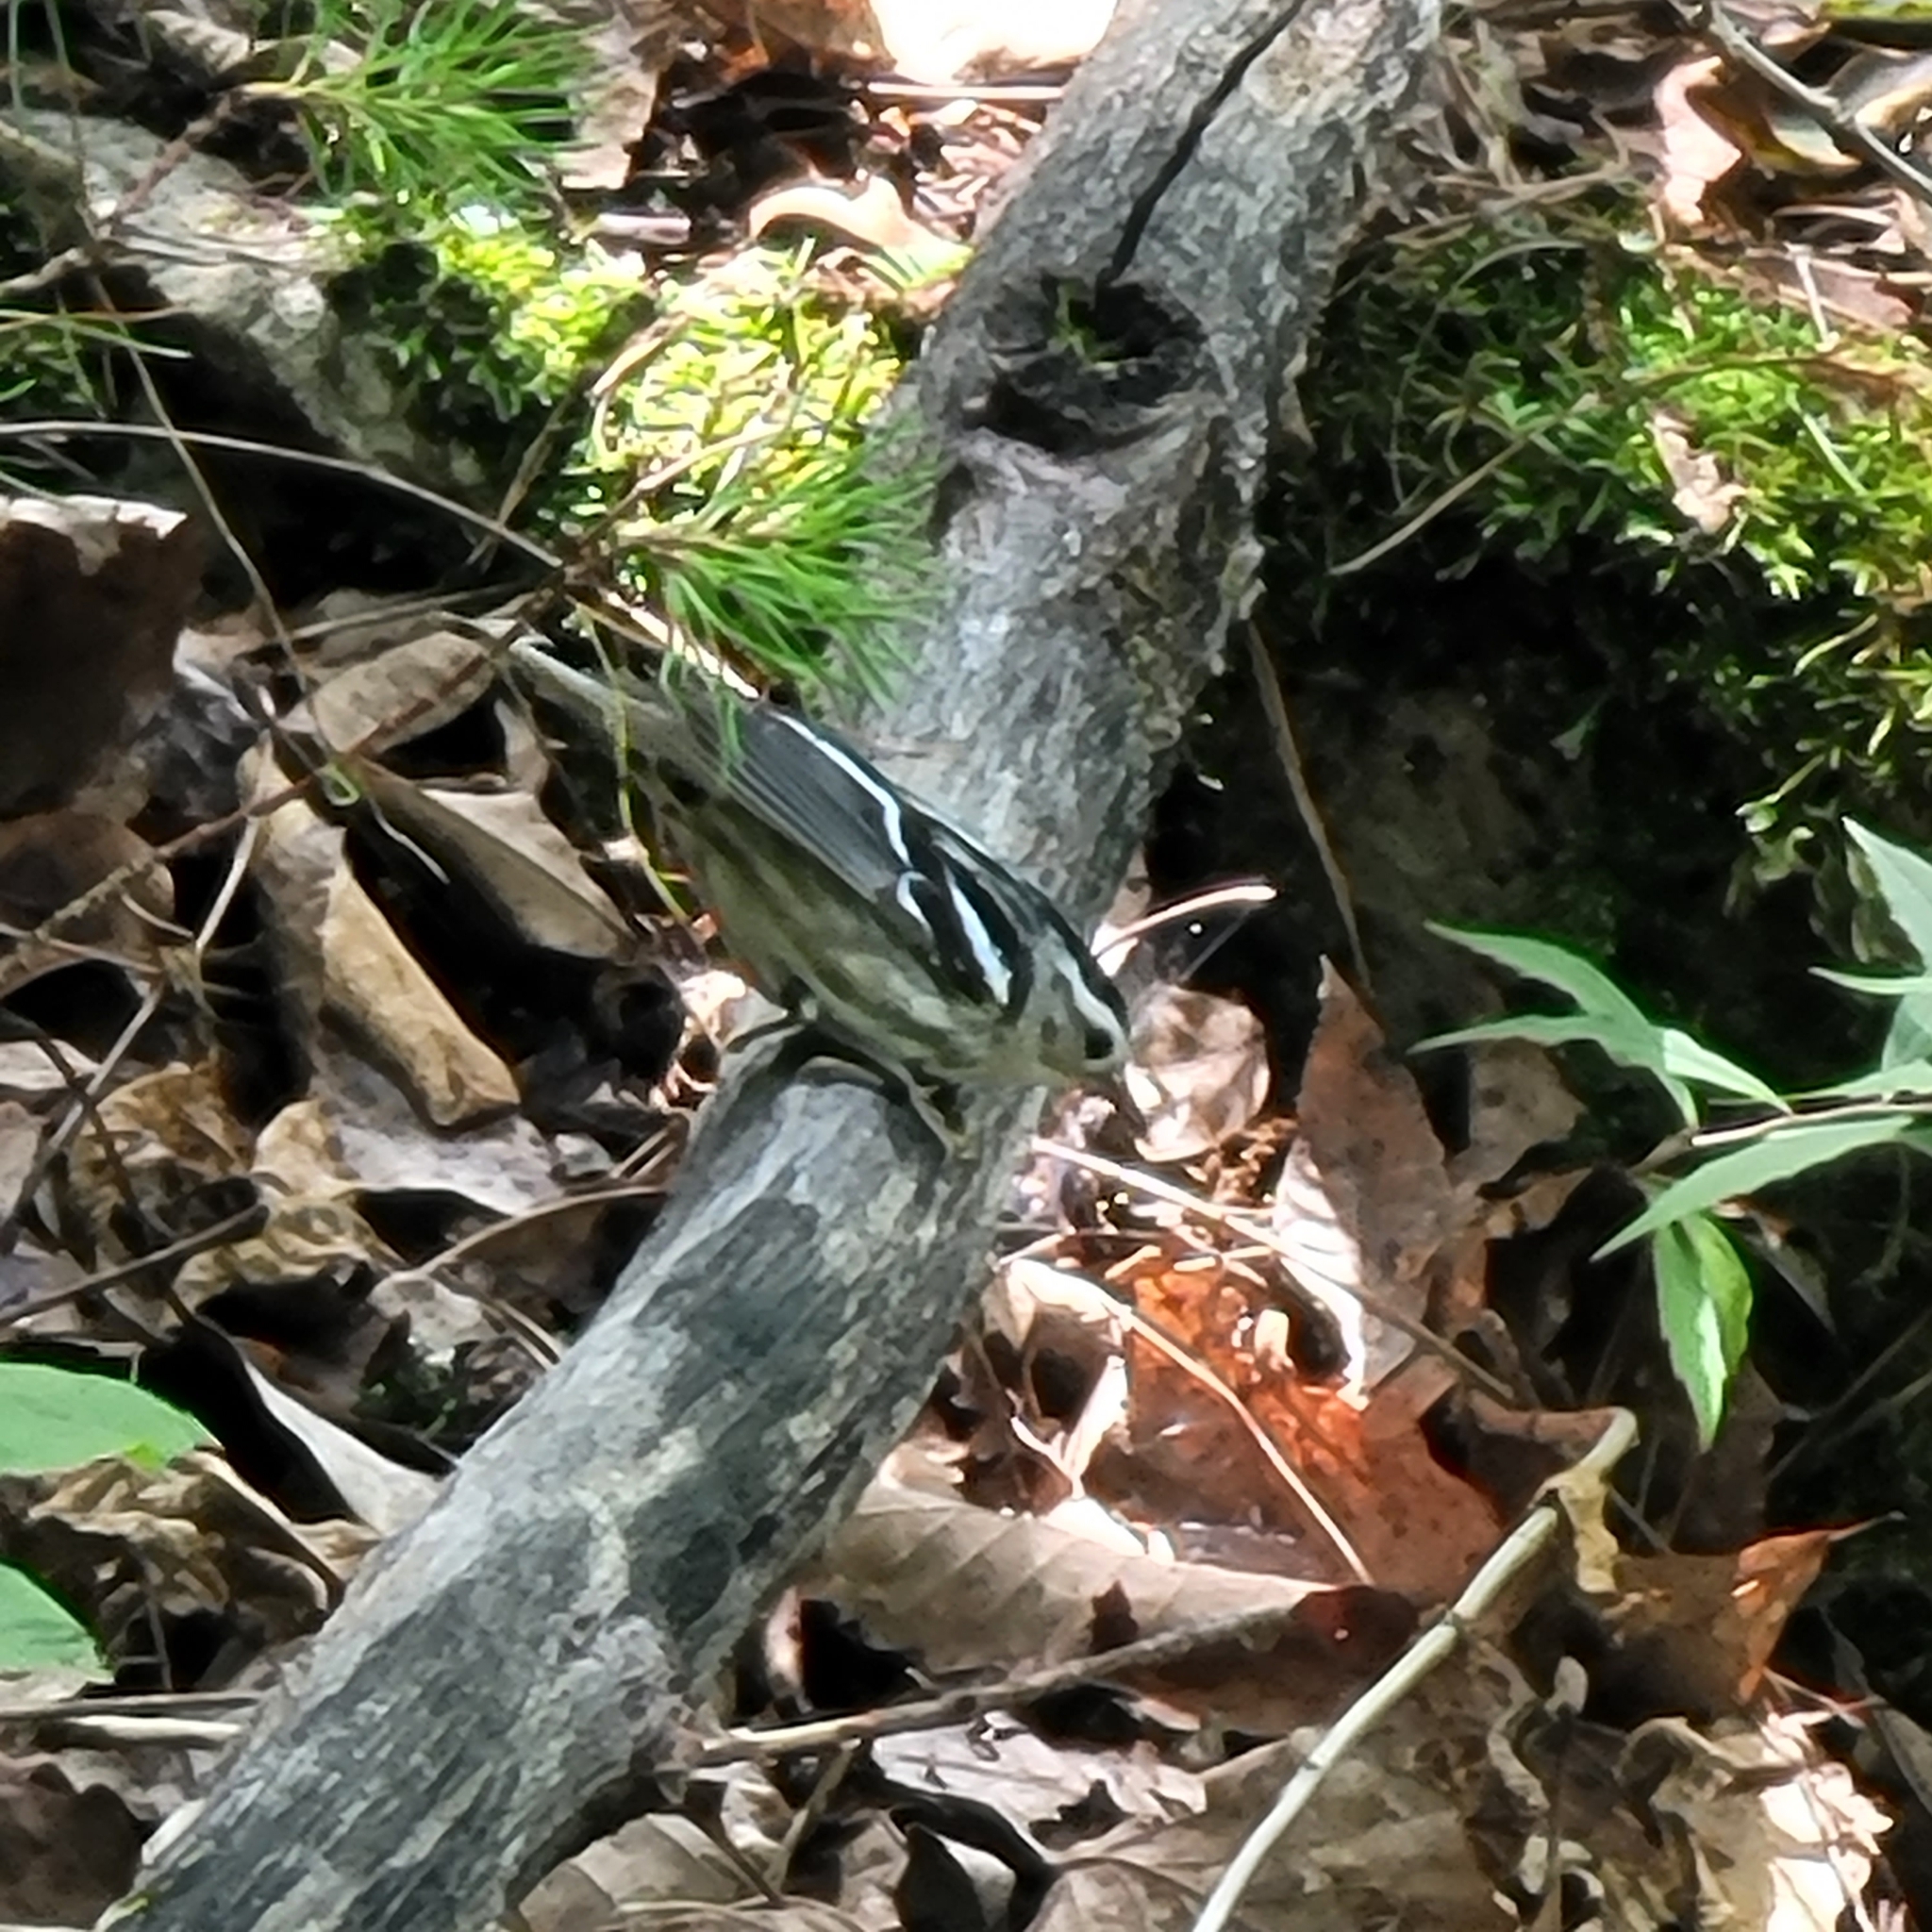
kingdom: Animalia
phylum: Chordata
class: Aves
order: Passeriformes
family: Parulidae
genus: Mniotilta
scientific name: Mniotilta varia
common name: Black-and-white warbler
